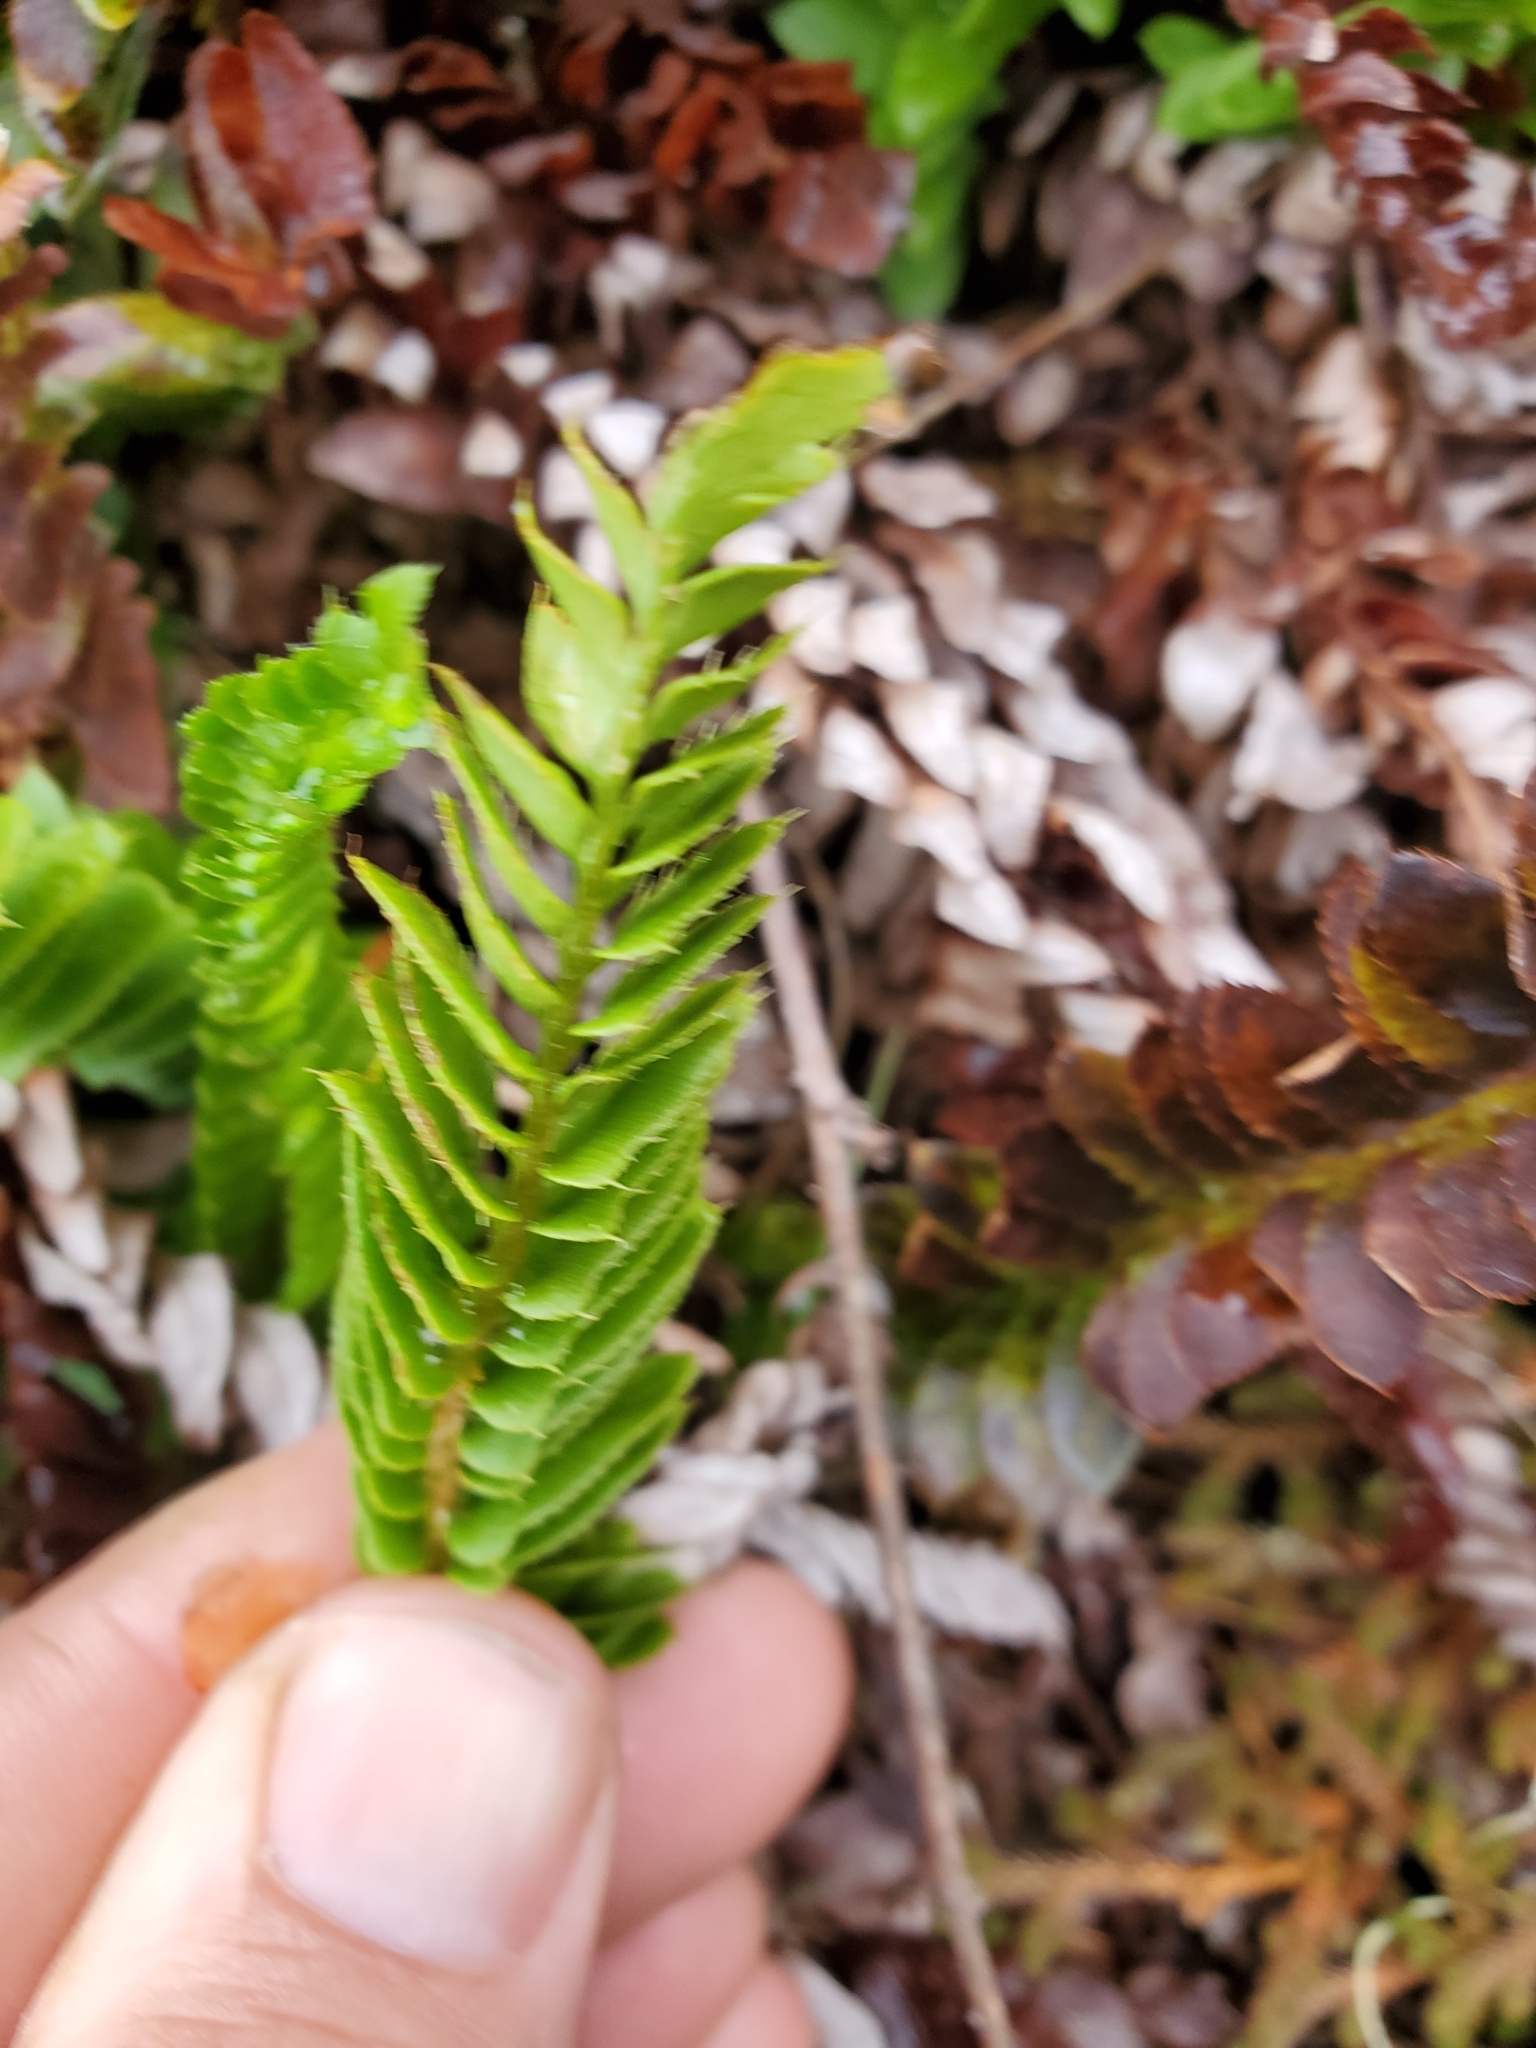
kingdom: Plantae
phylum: Tracheophyta
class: Polypodiopsida
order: Polypodiales
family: Dryopteridaceae
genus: Polystichum
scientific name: Polystichum imbricans
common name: Dwarf western sword fern
